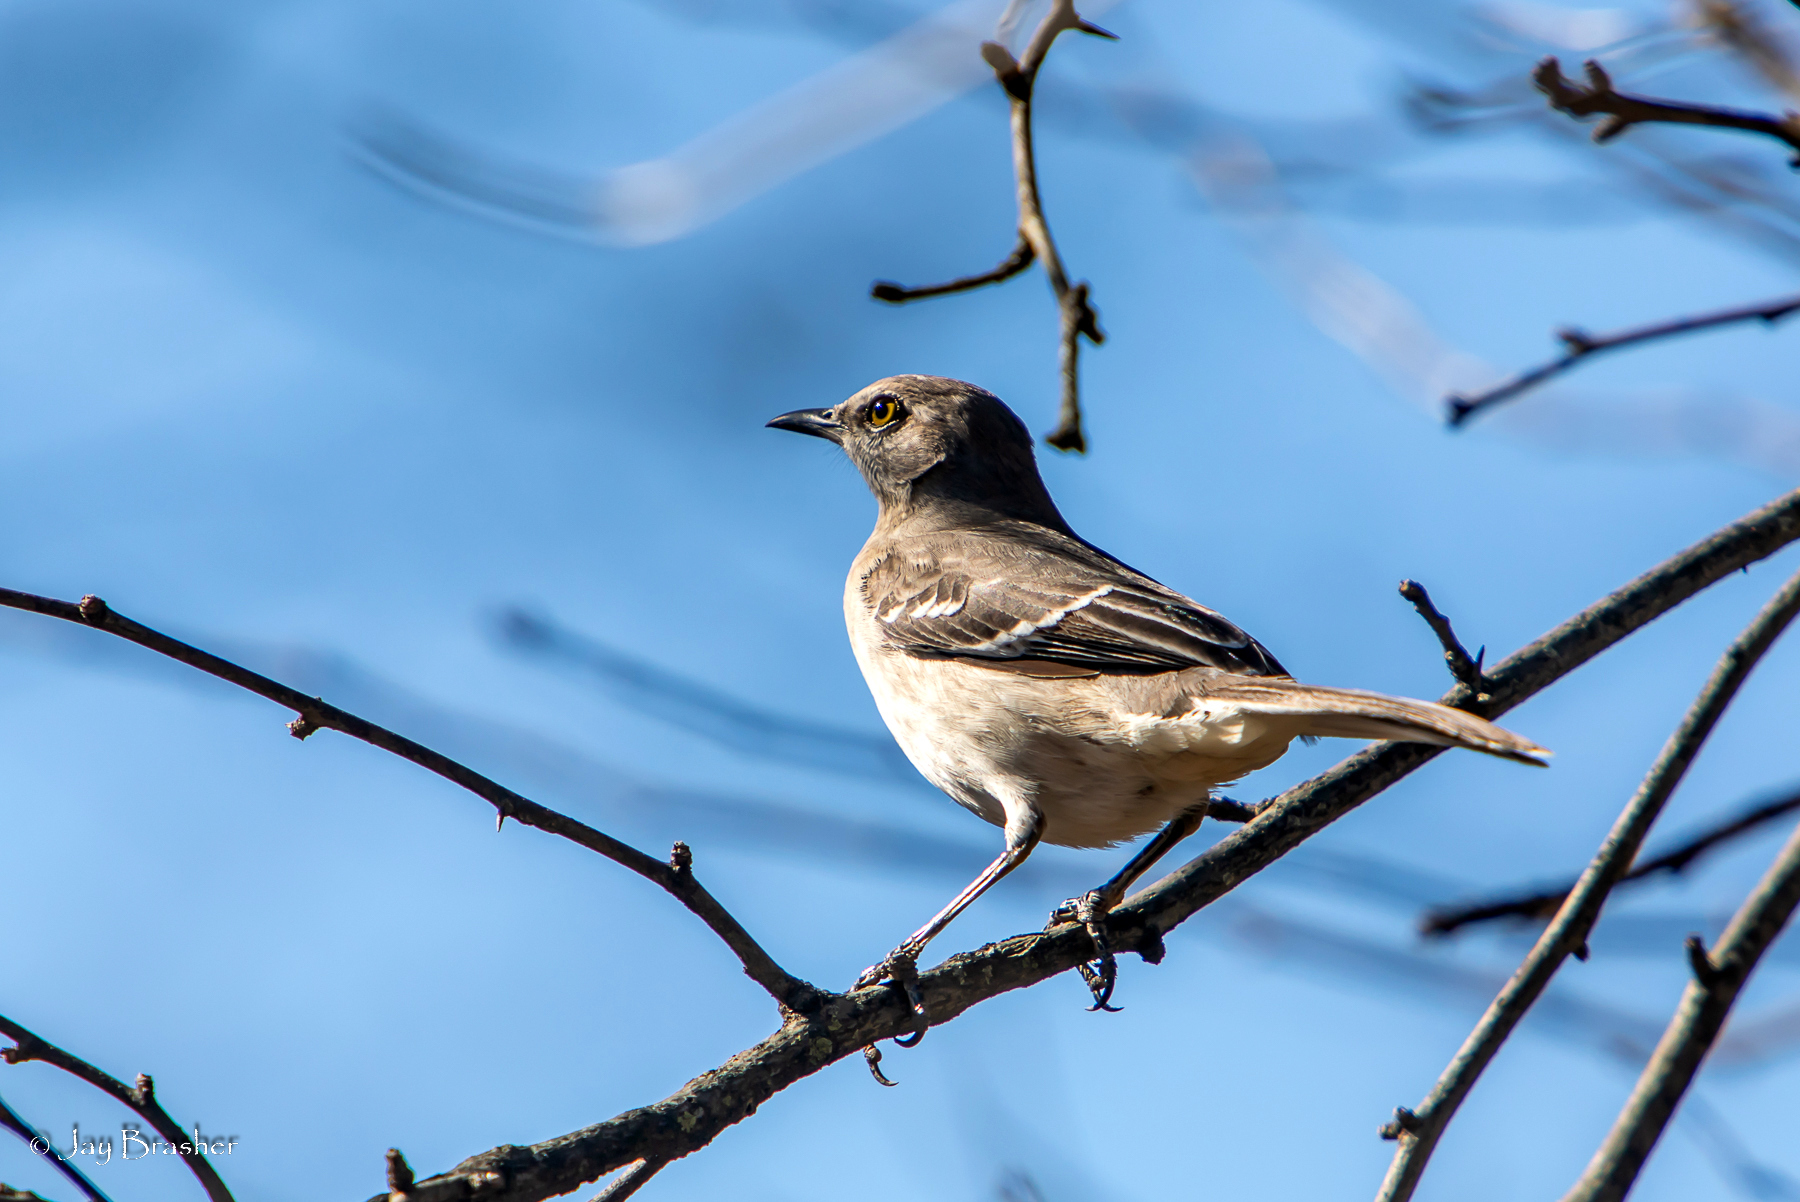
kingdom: Animalia
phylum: Chordata
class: Aves
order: Passeriformes
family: Mimidae
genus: Mimus
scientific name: Mimus polyglottos
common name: Northern mockingbird
